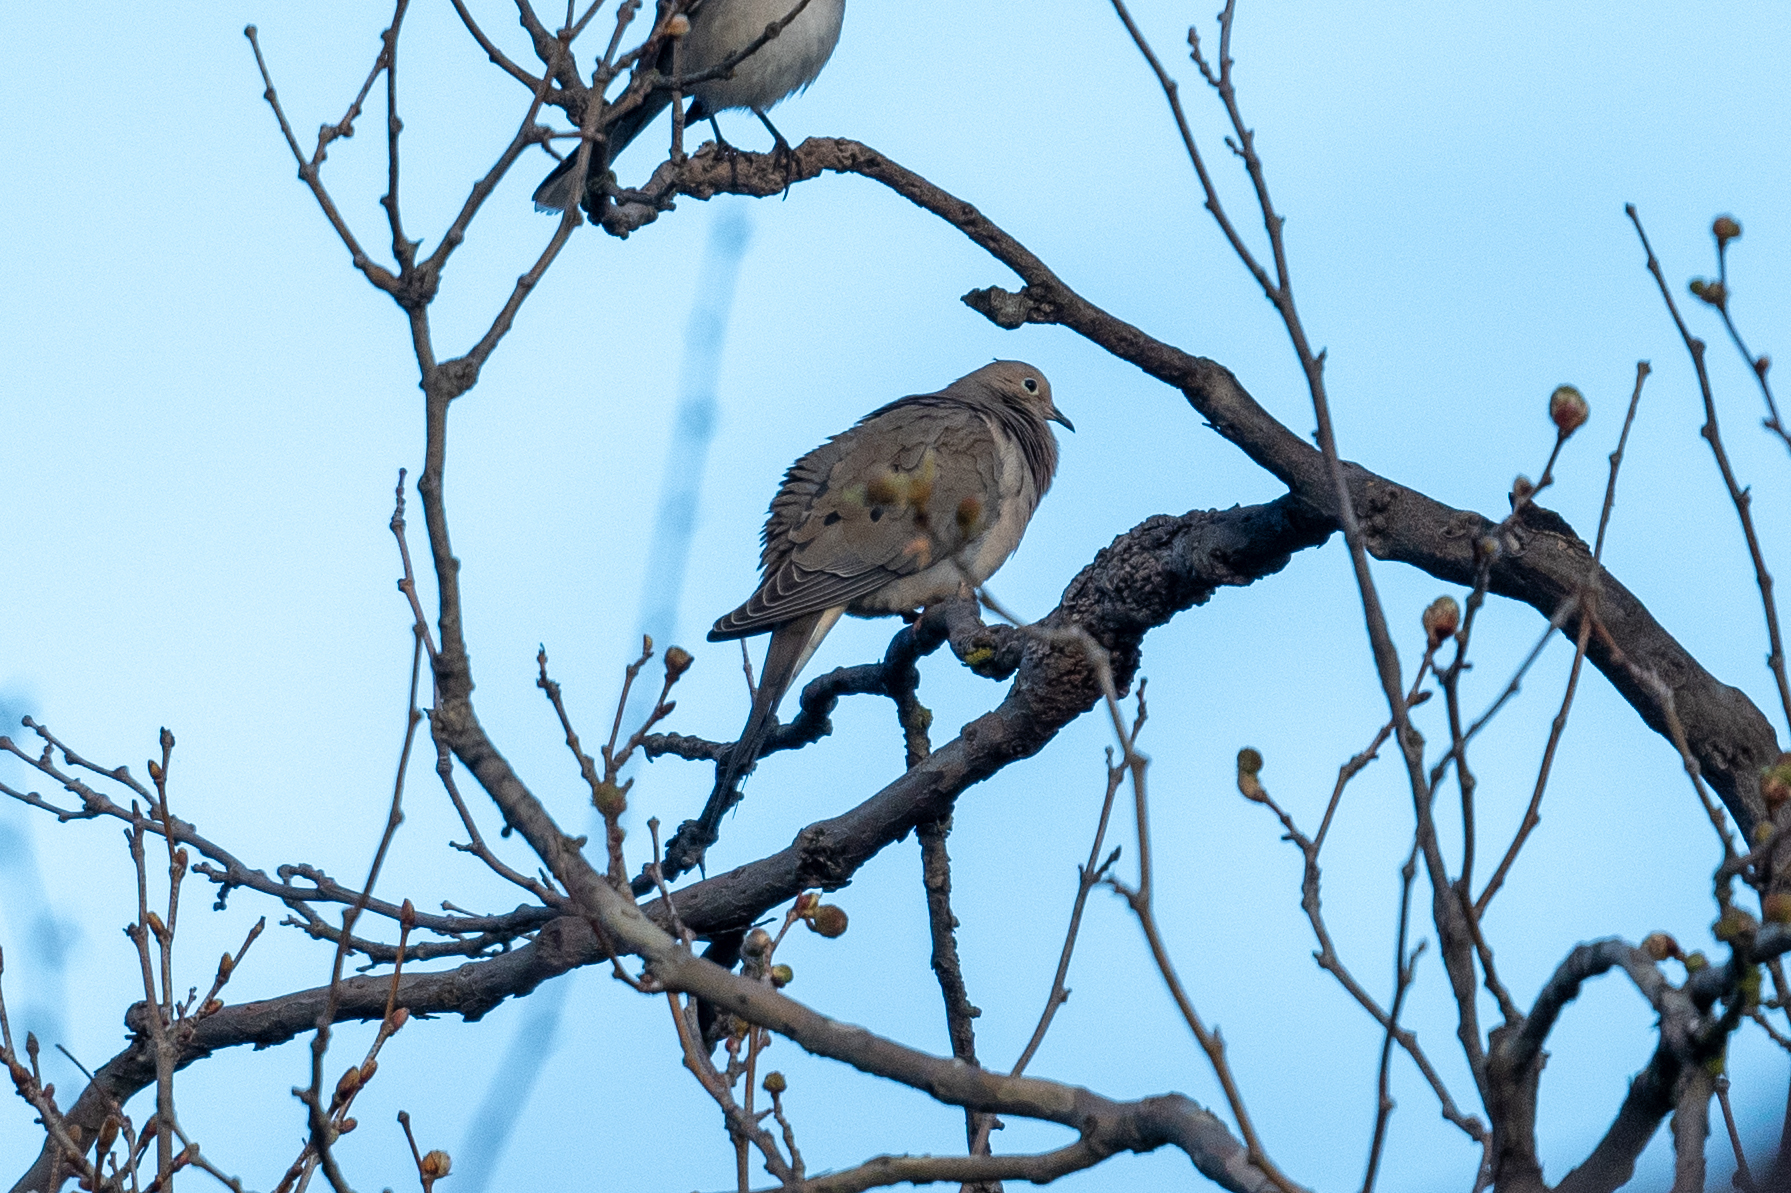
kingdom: Animalia
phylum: Chordata
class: Aves
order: Columbiformes
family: Columbidae
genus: Zenaida
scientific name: Zenaida macroura
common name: Mourning dove
